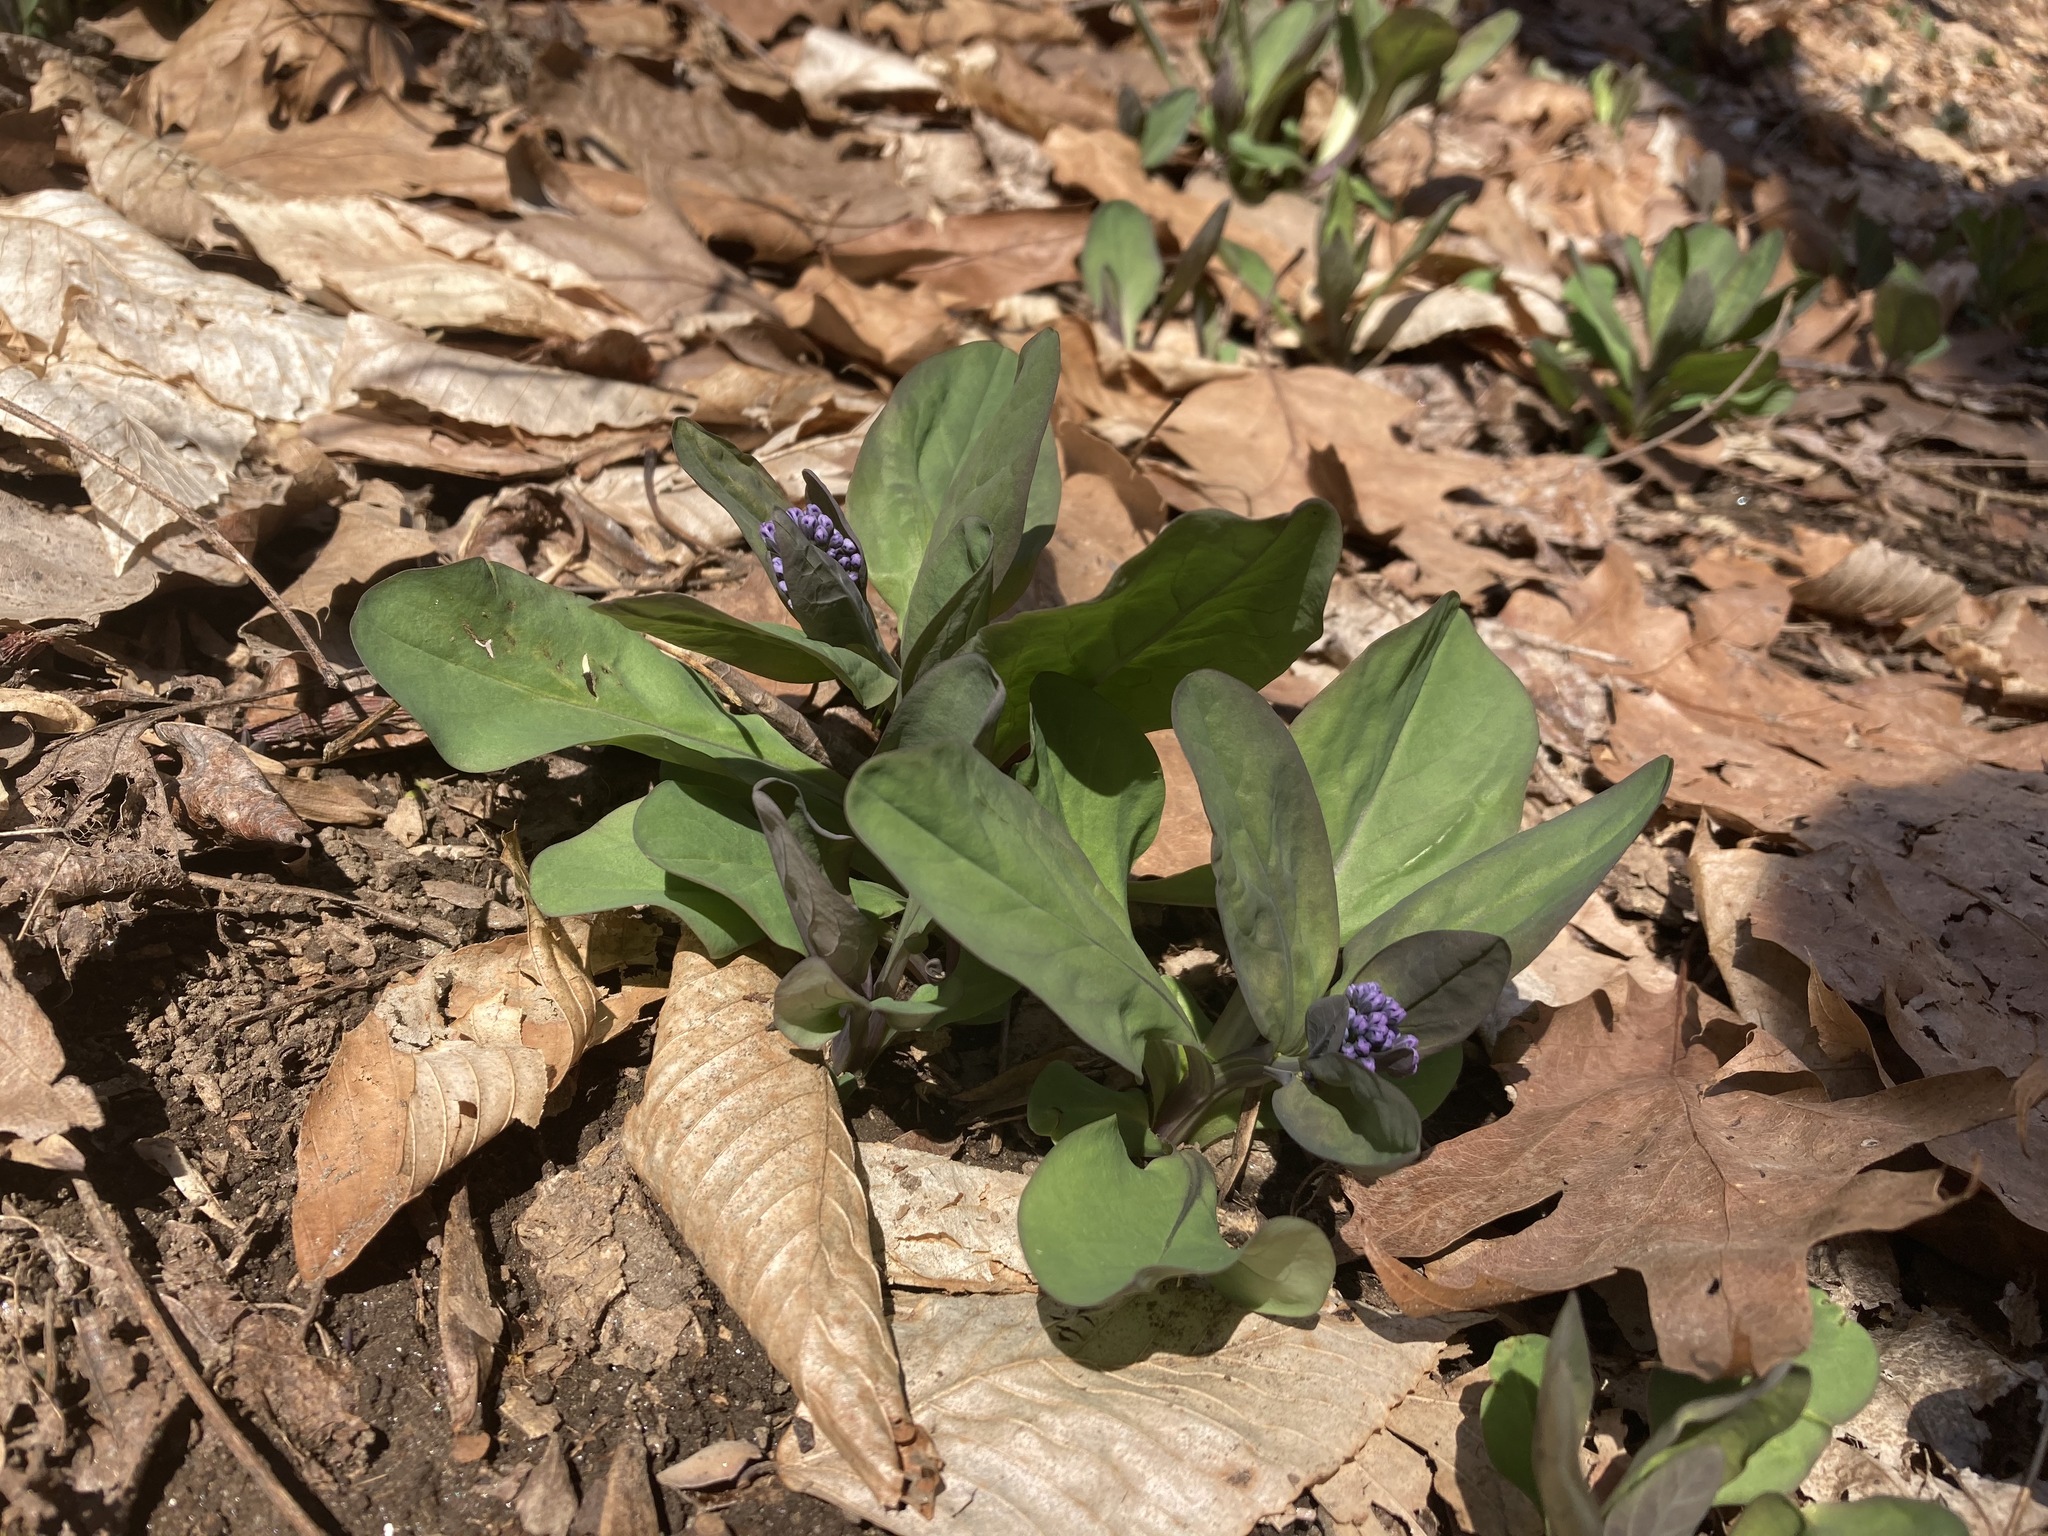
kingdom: Plantae
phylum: Tracheophyta
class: Magnoliopsida
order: Boraginales
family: Boraginaceae
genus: Mertensia
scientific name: Mertensia virginica
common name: Virginia bluebells
